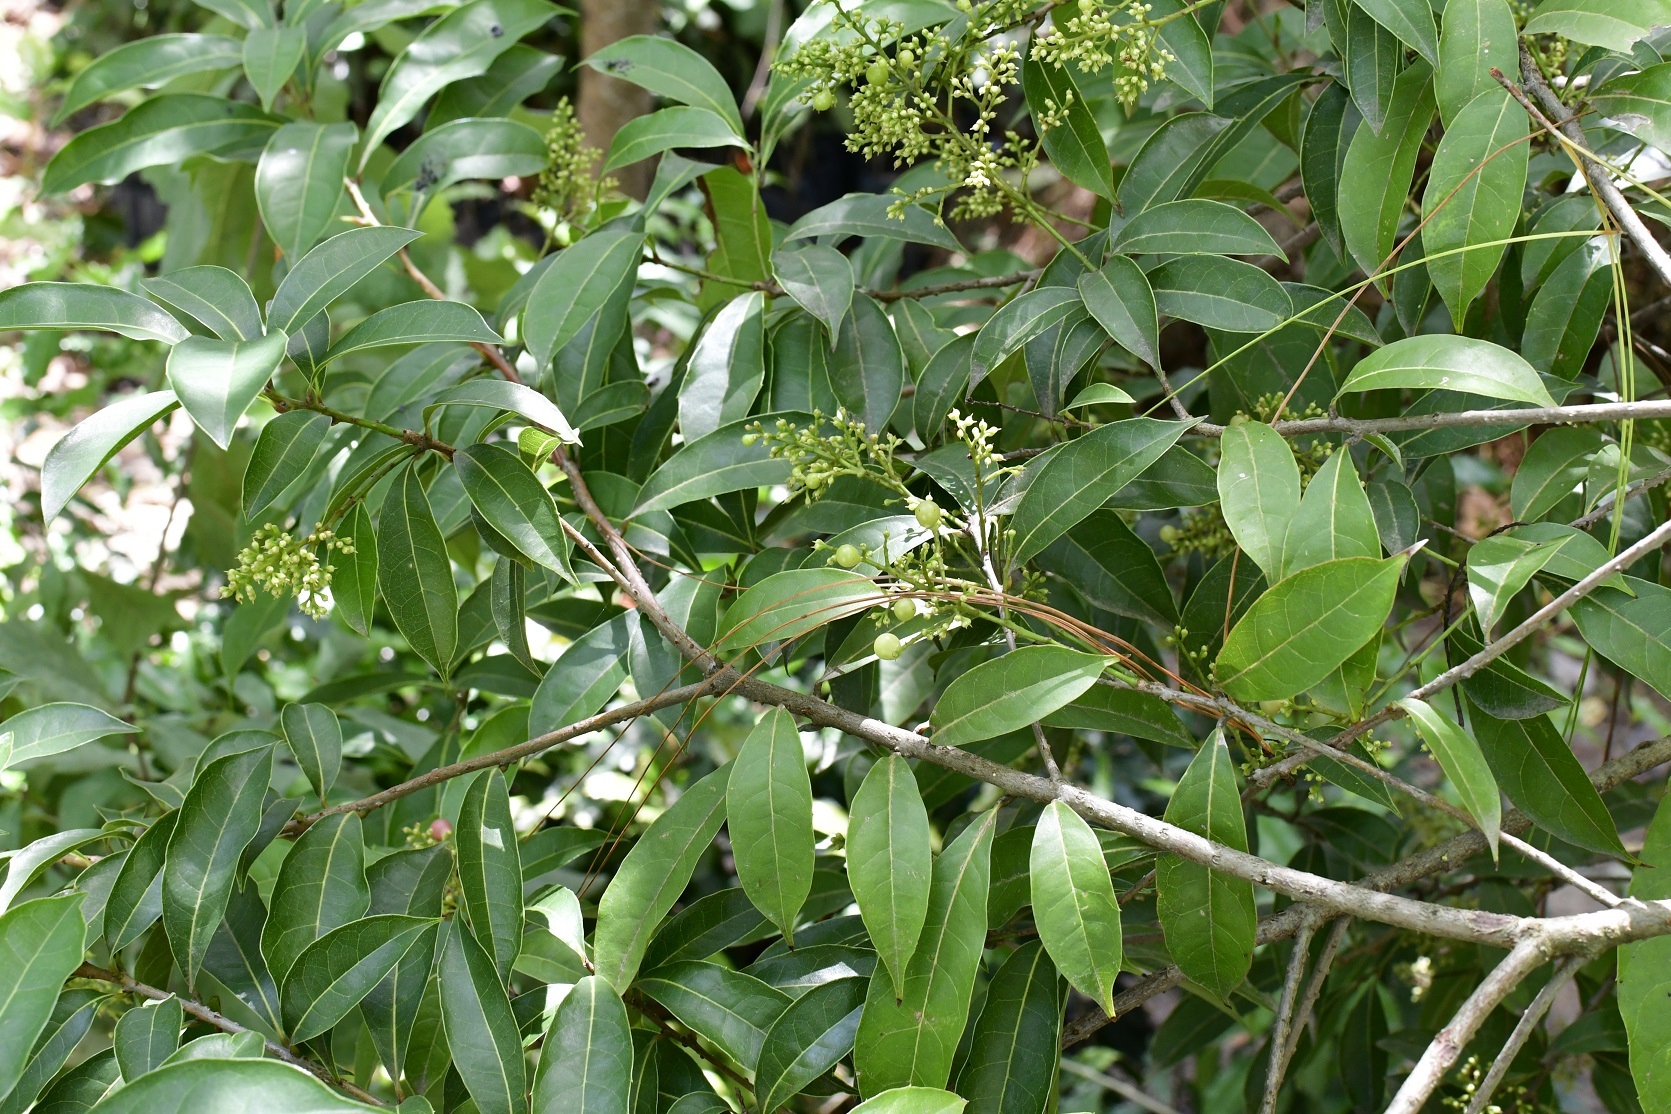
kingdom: Plantae
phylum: Tracheophyta
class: Magnoliopsida
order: Proteales
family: Sabiaceae
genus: Meliosma
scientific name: Meliosma dentata
